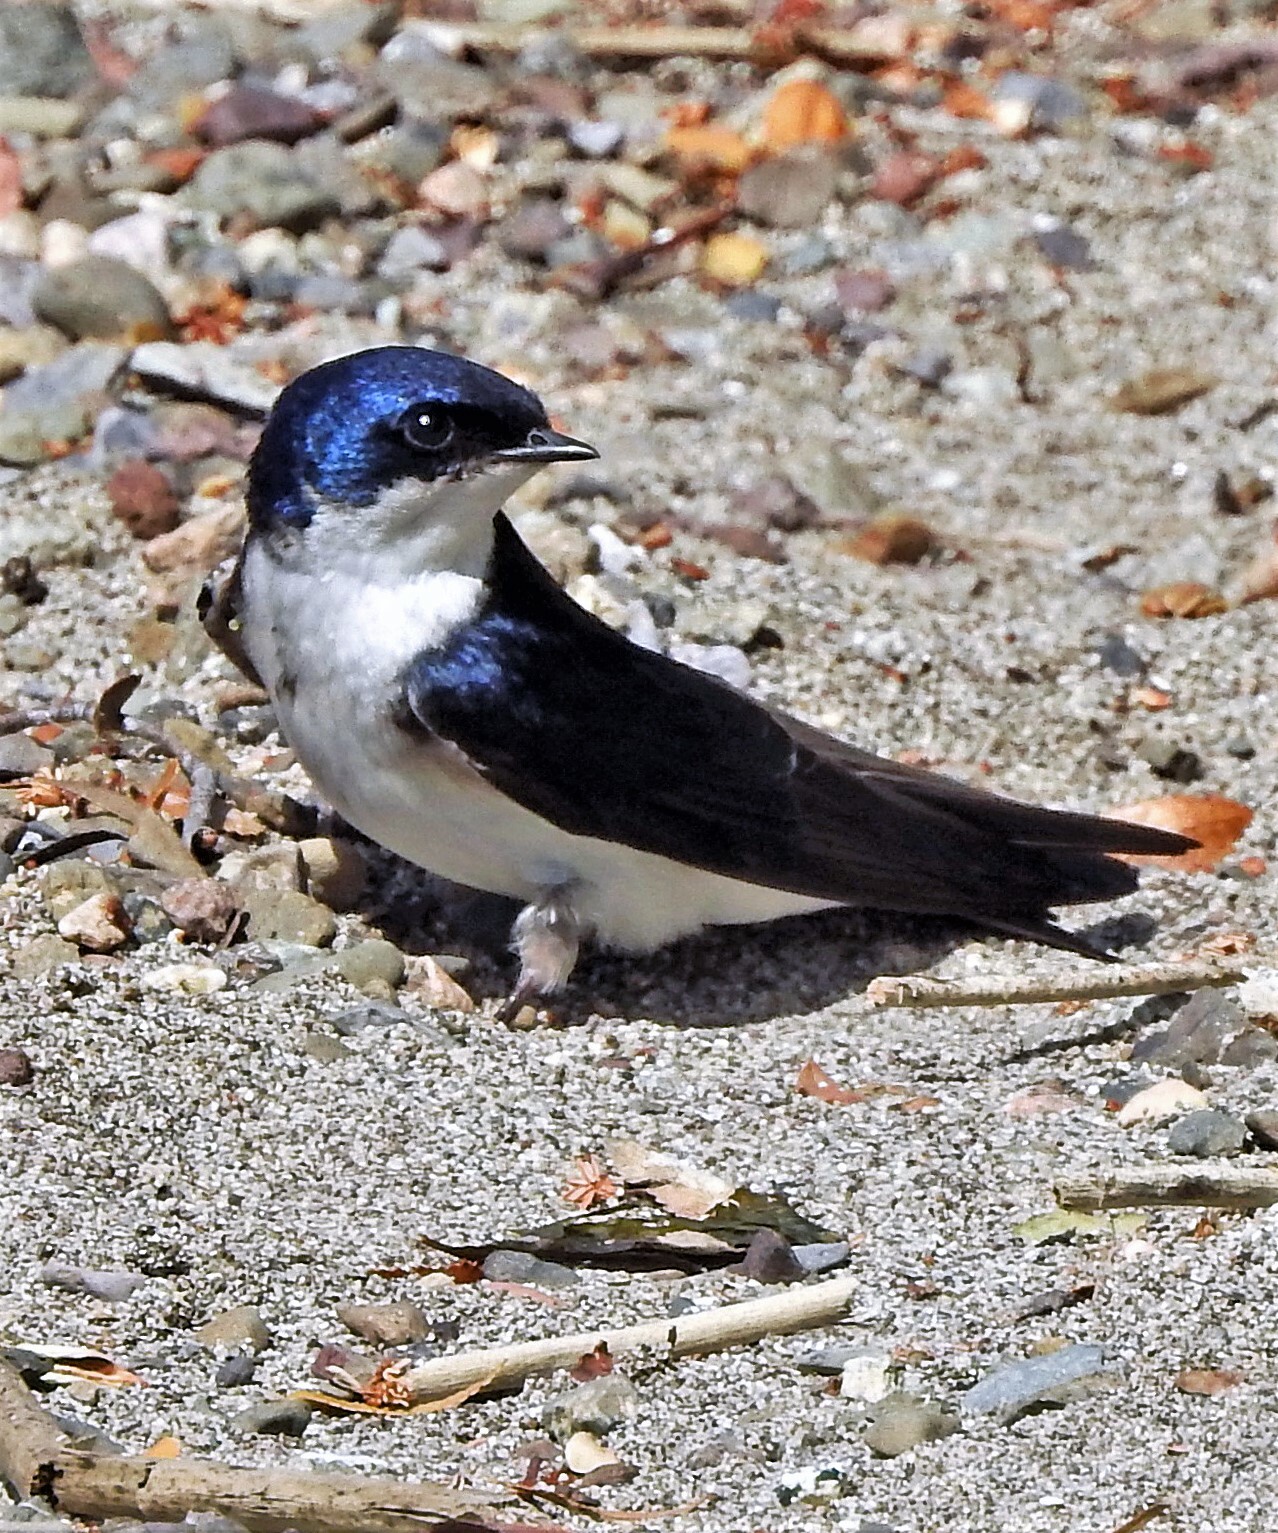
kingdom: Animalia
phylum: Chordata
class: Aves
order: Passeriformes
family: Hirundinidae
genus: Tachycineta
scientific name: Tachycineta leucopyga
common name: Chilean swallow
